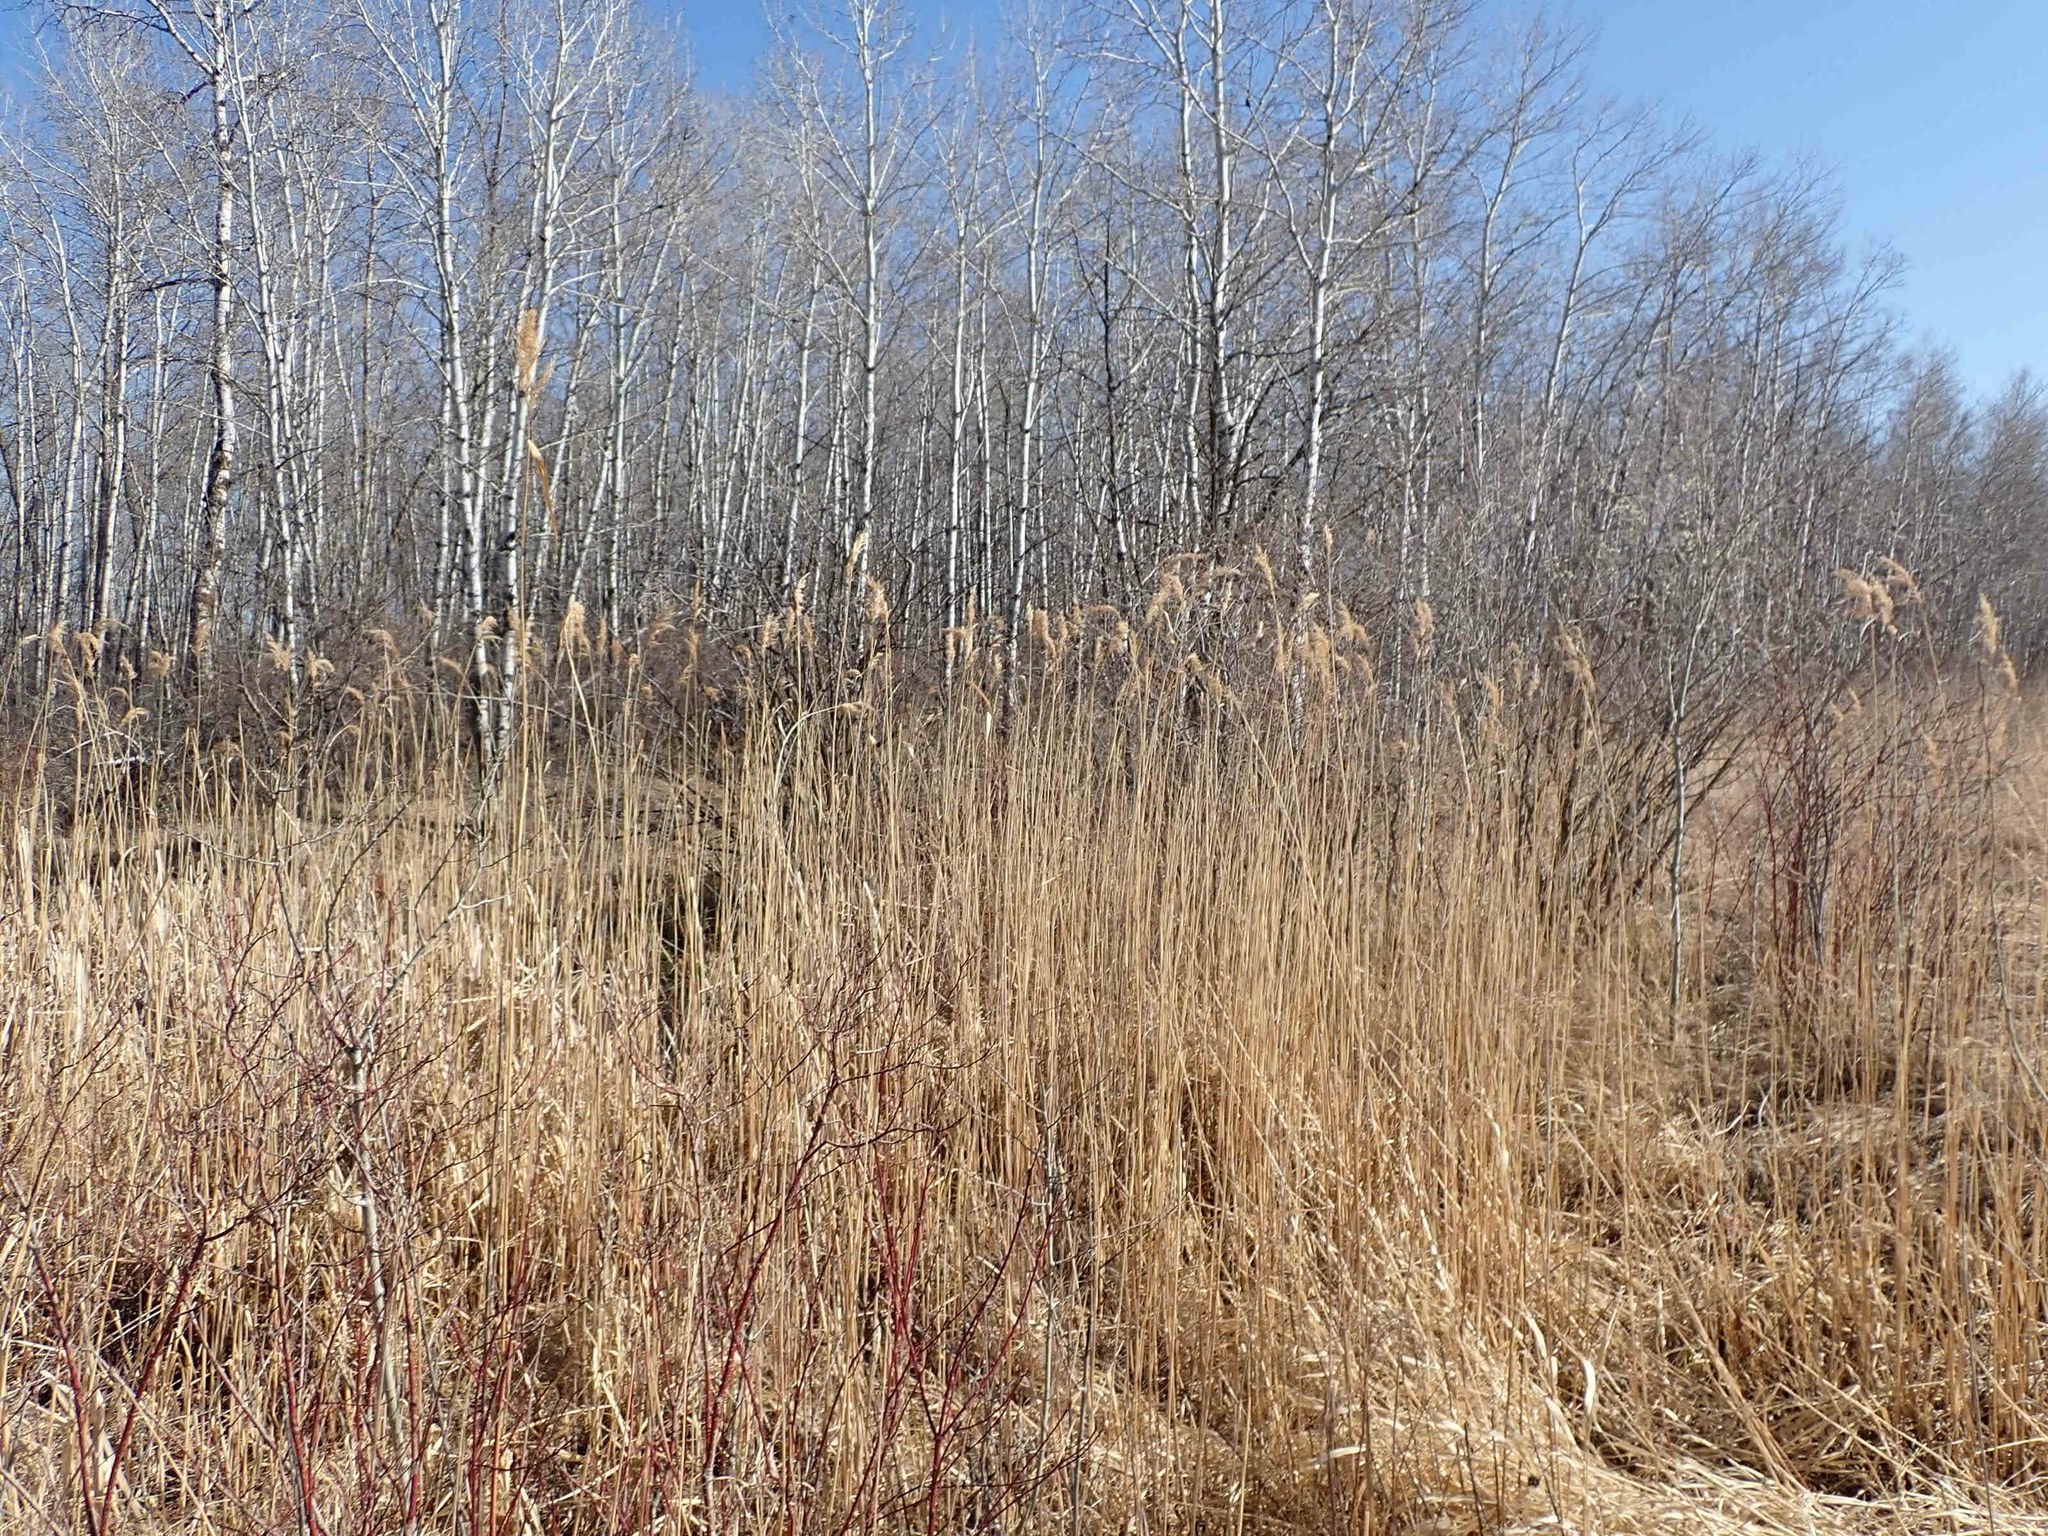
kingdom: Plantae
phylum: Tracheophyta
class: Liliopsida
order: Poales
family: Poaceae
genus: Phragmites
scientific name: Phragmites australis
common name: Common reed
